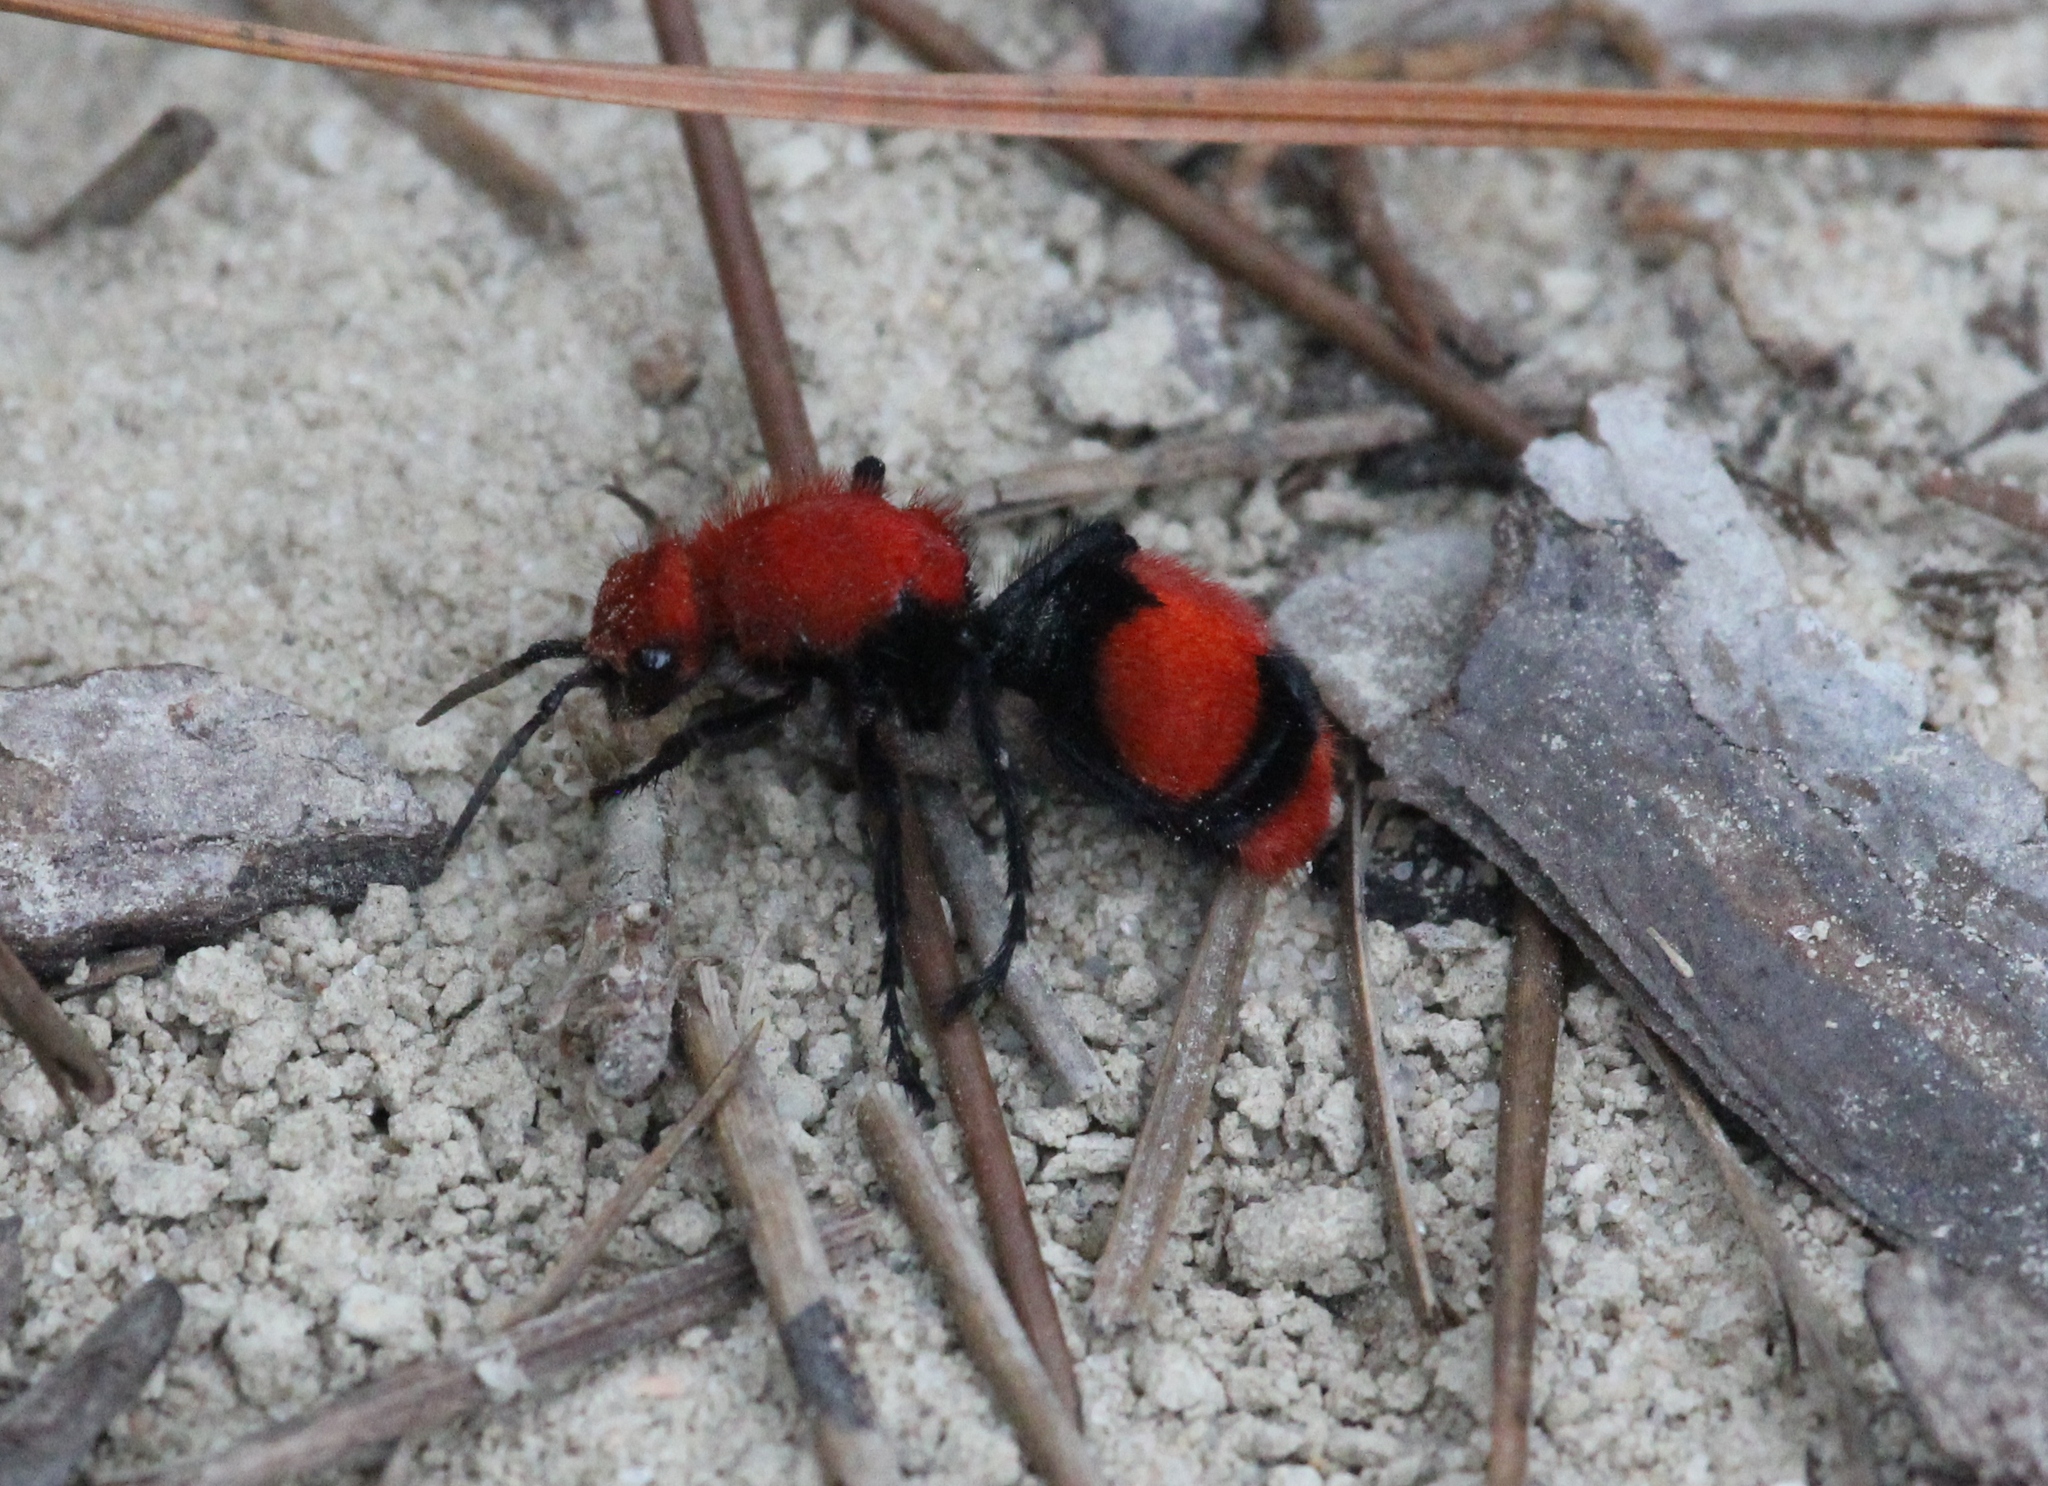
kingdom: Animalia
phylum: Arthropoda
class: Insecta
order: Hymenoptera
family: Mutillidae
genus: Dasymutilla
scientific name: Dasymutilla occidentalis
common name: Common eastern velvet ant
